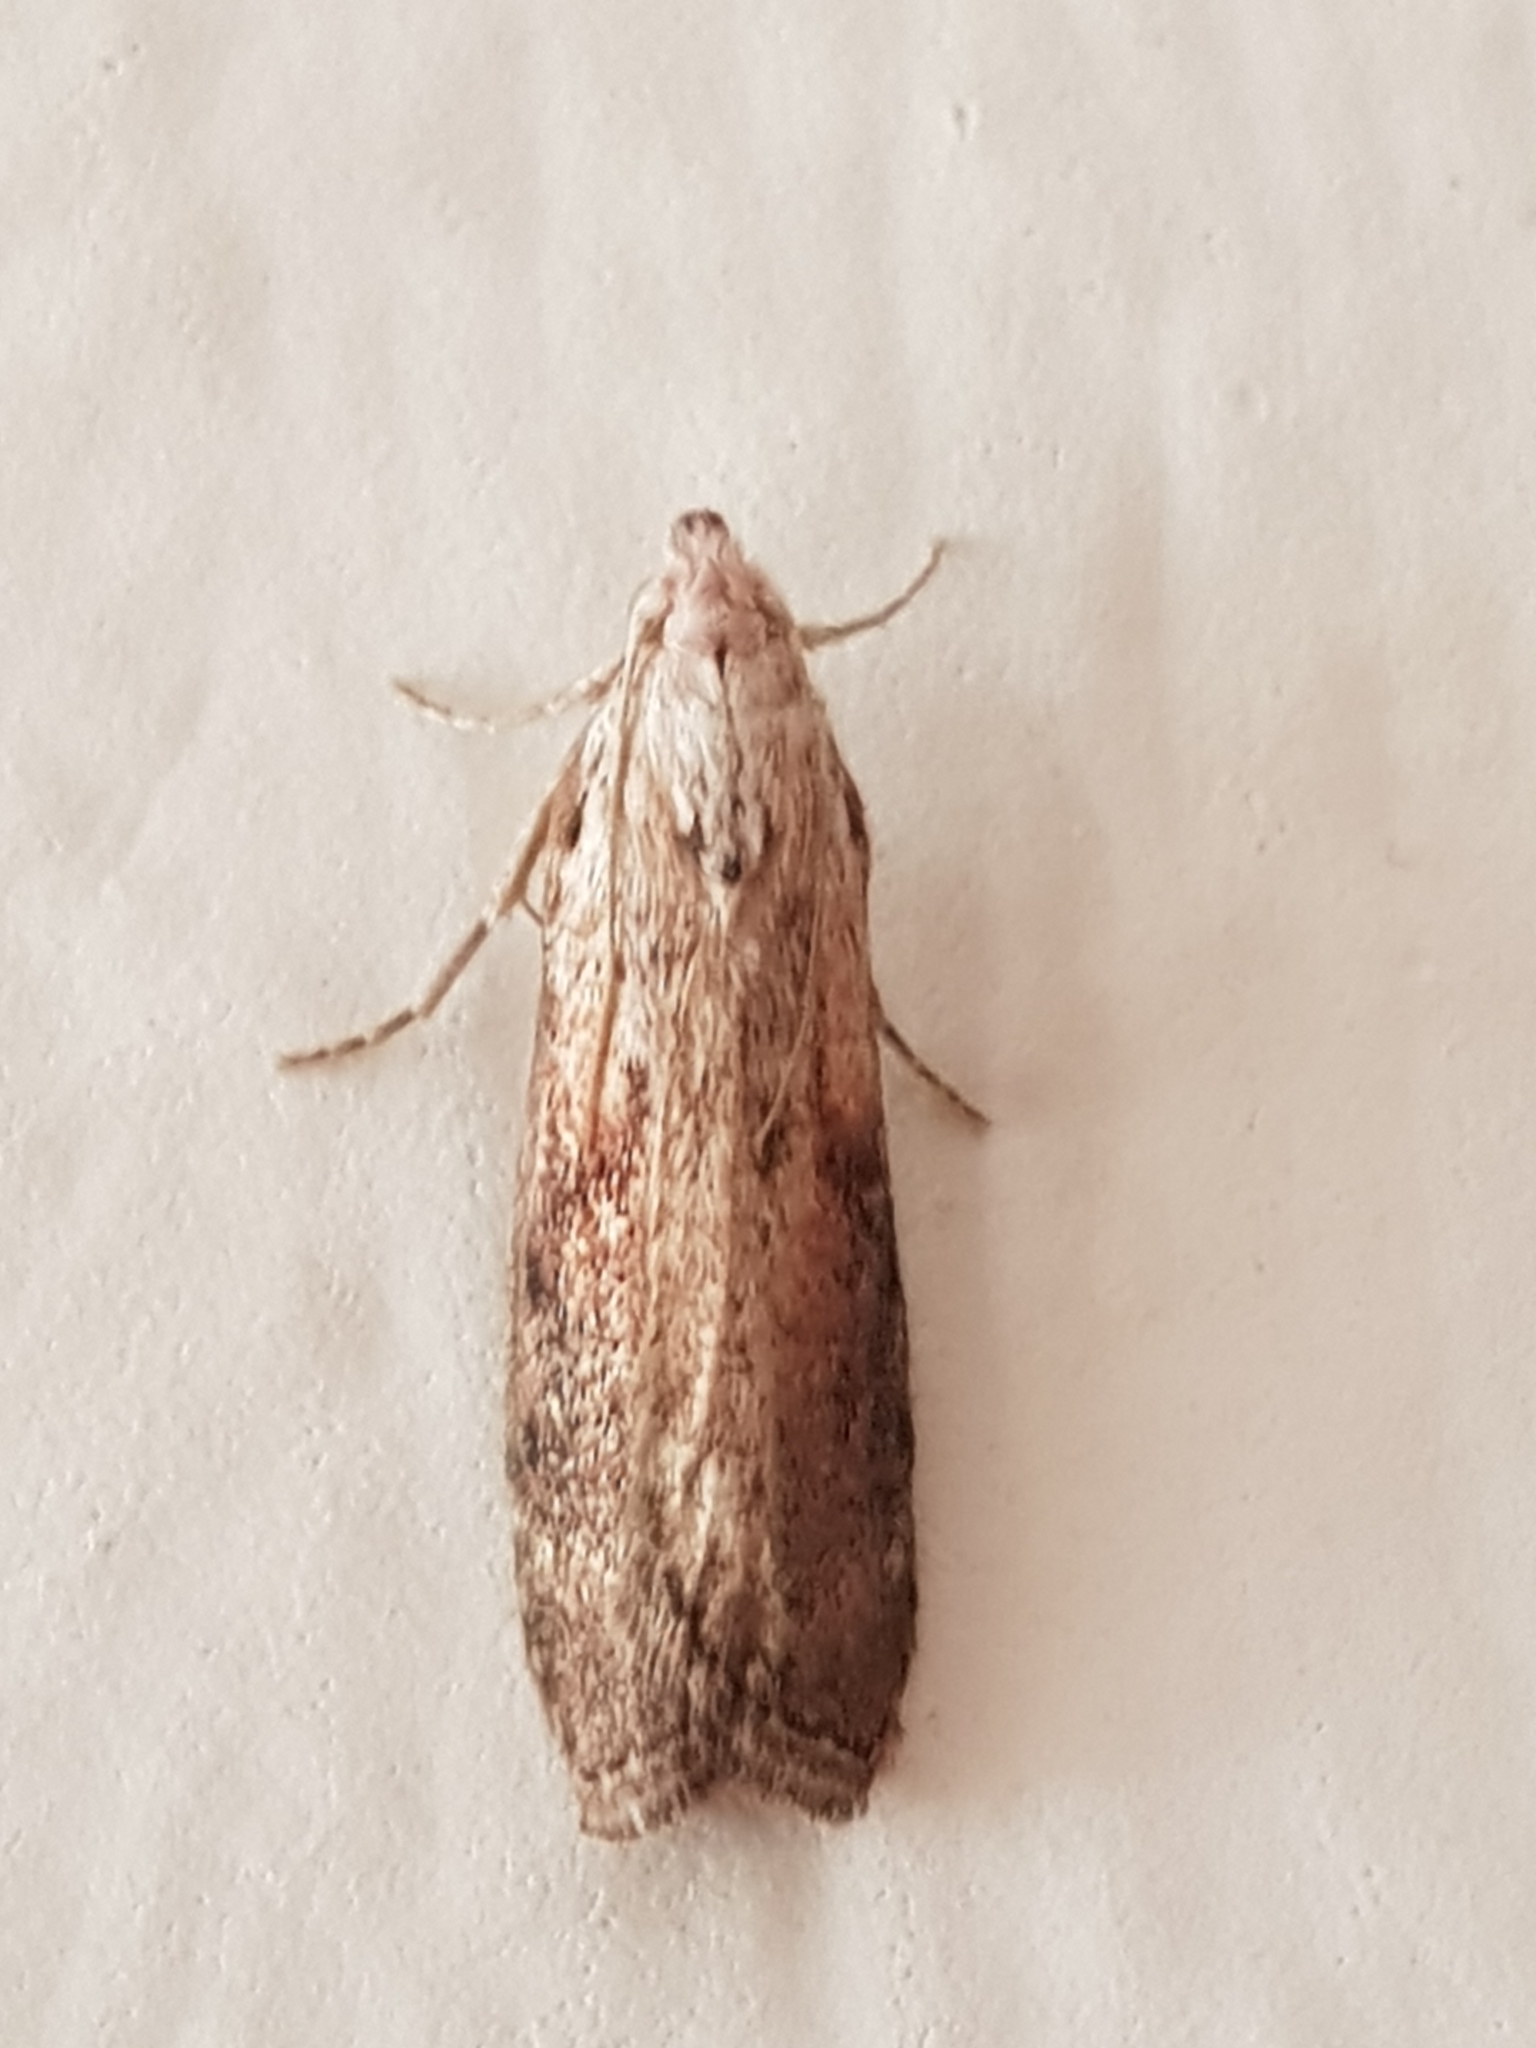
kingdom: Animalia
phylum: Arthropoda
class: Insecta
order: Lepidoptera
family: Pyralidae
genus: Aphomia
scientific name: Aphomia sociella
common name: Bee moth
